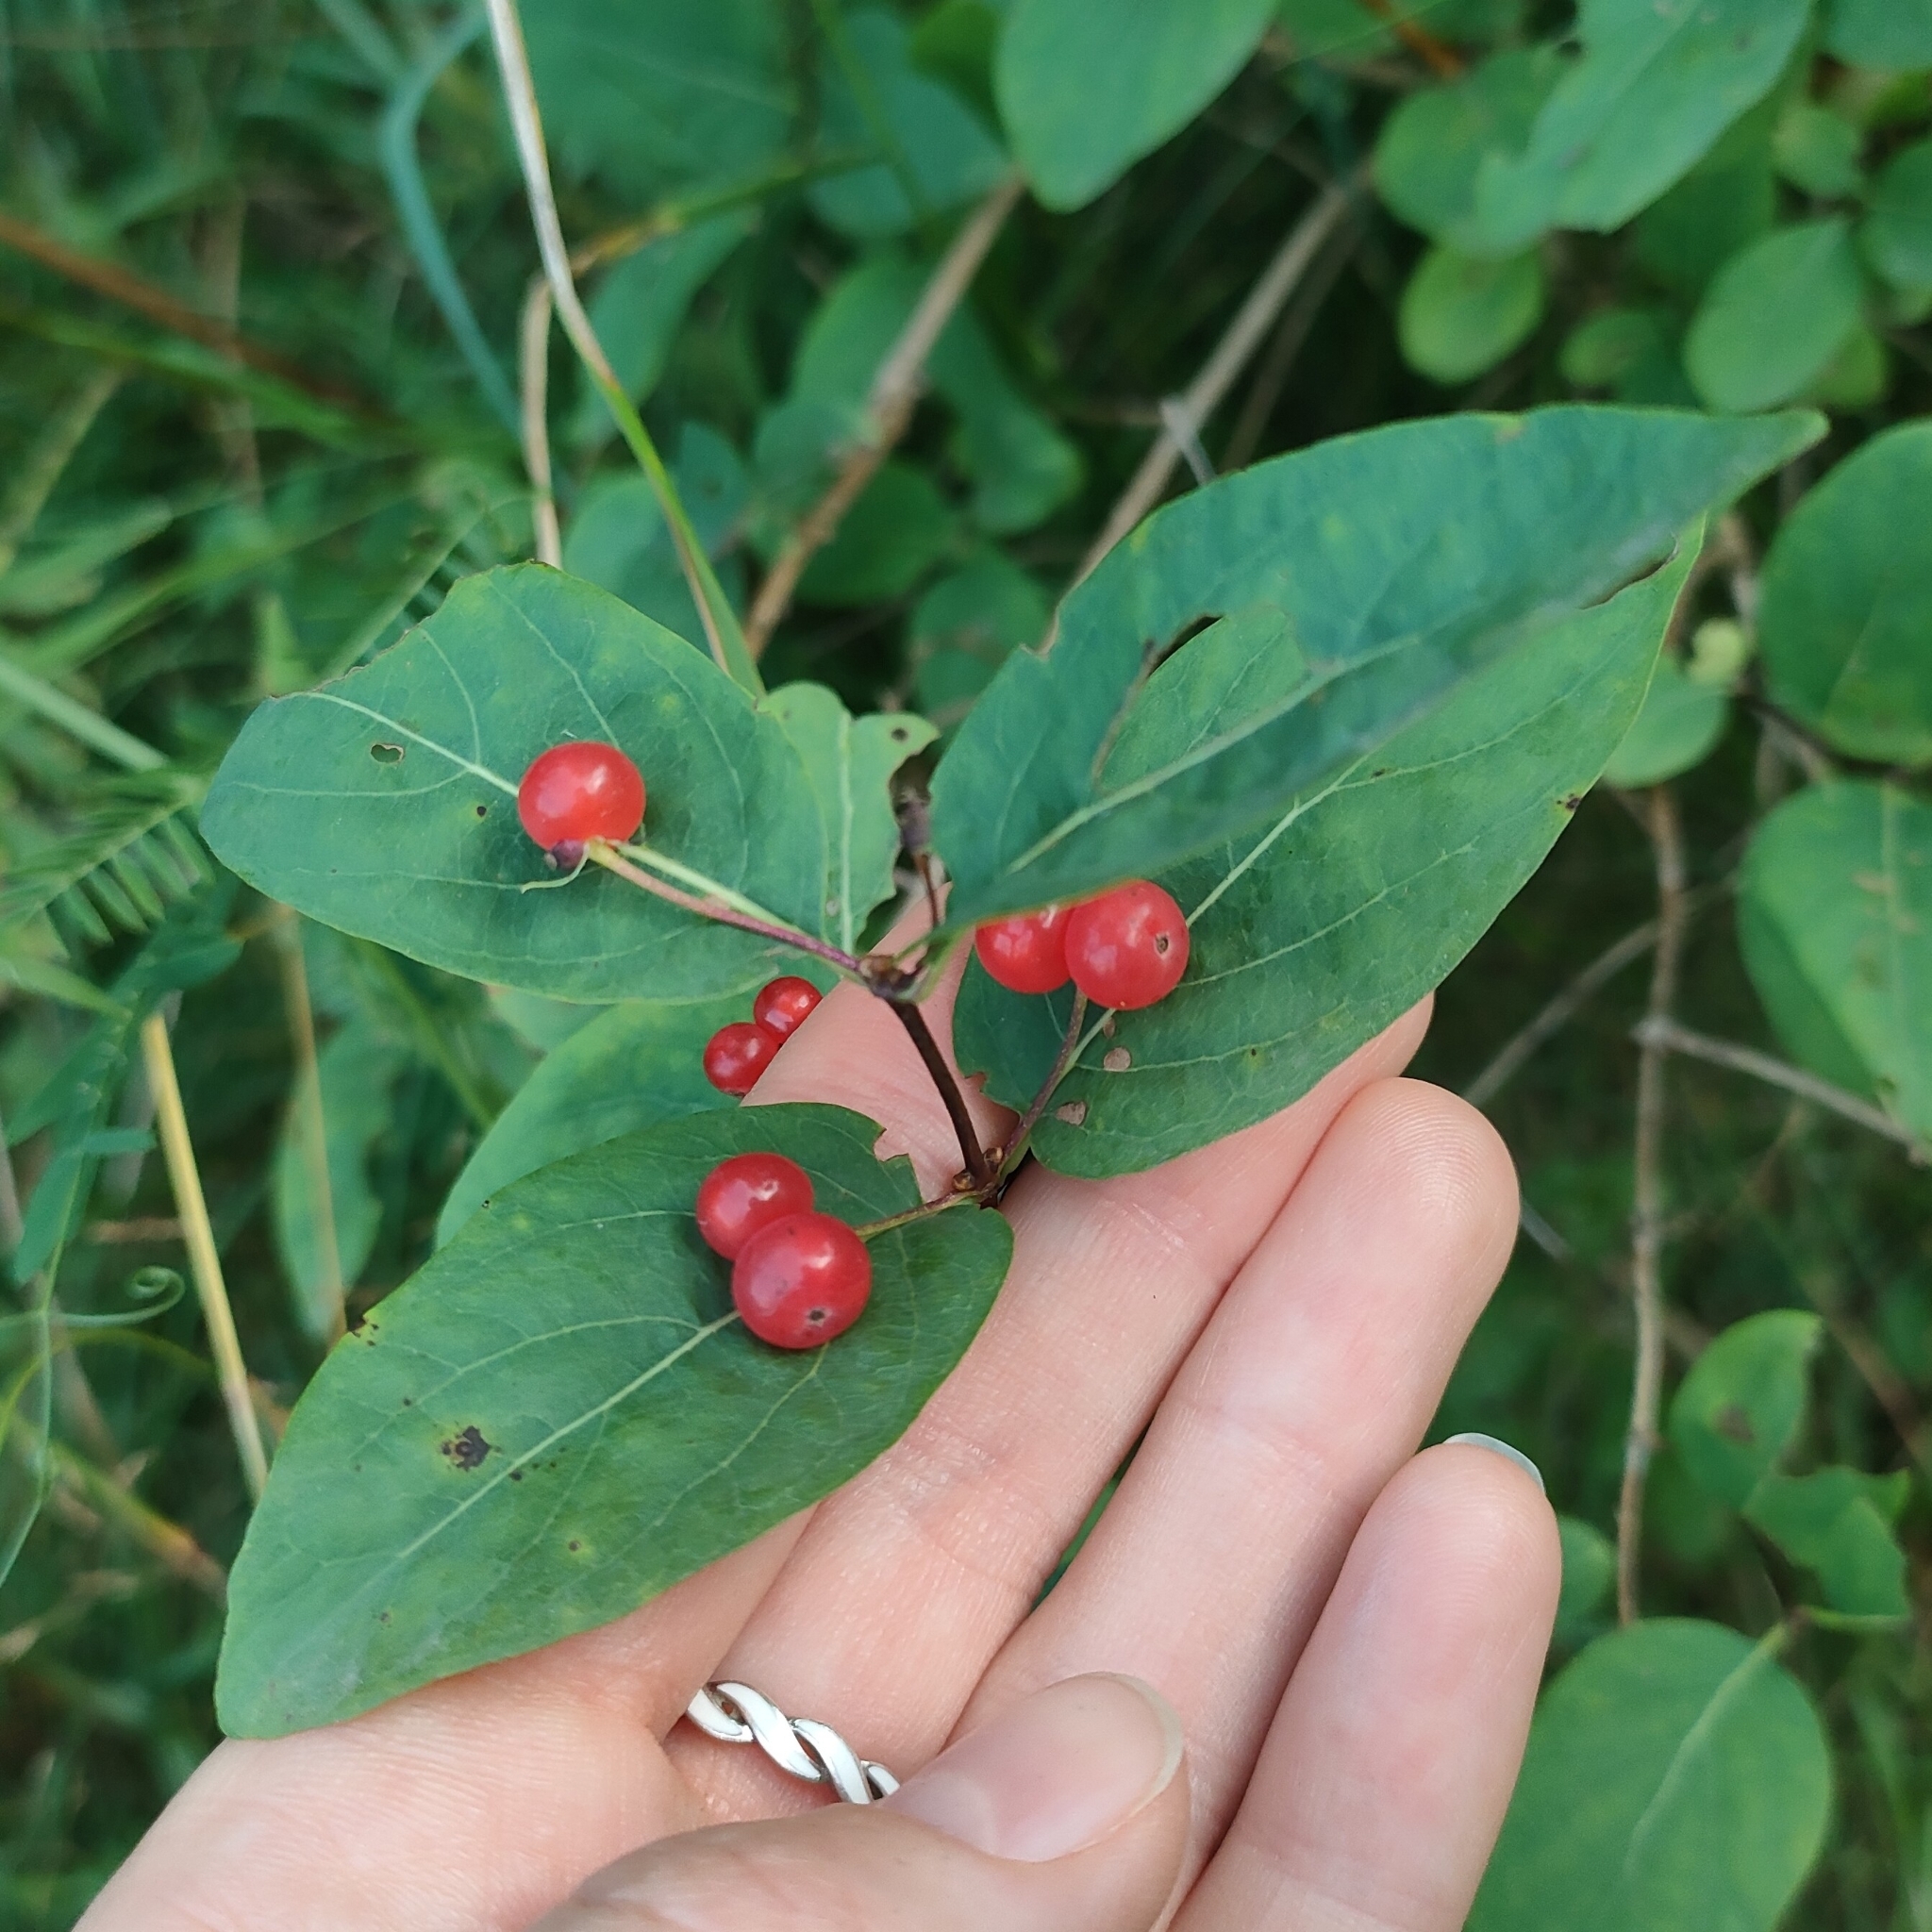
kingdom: Plantae
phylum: Tracheophyta
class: Magnoliopsida
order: Dipsacales
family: Caprifoliaceae
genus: Lonicera
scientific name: Lonicera tatarica
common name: Tatarian honeysuckle
